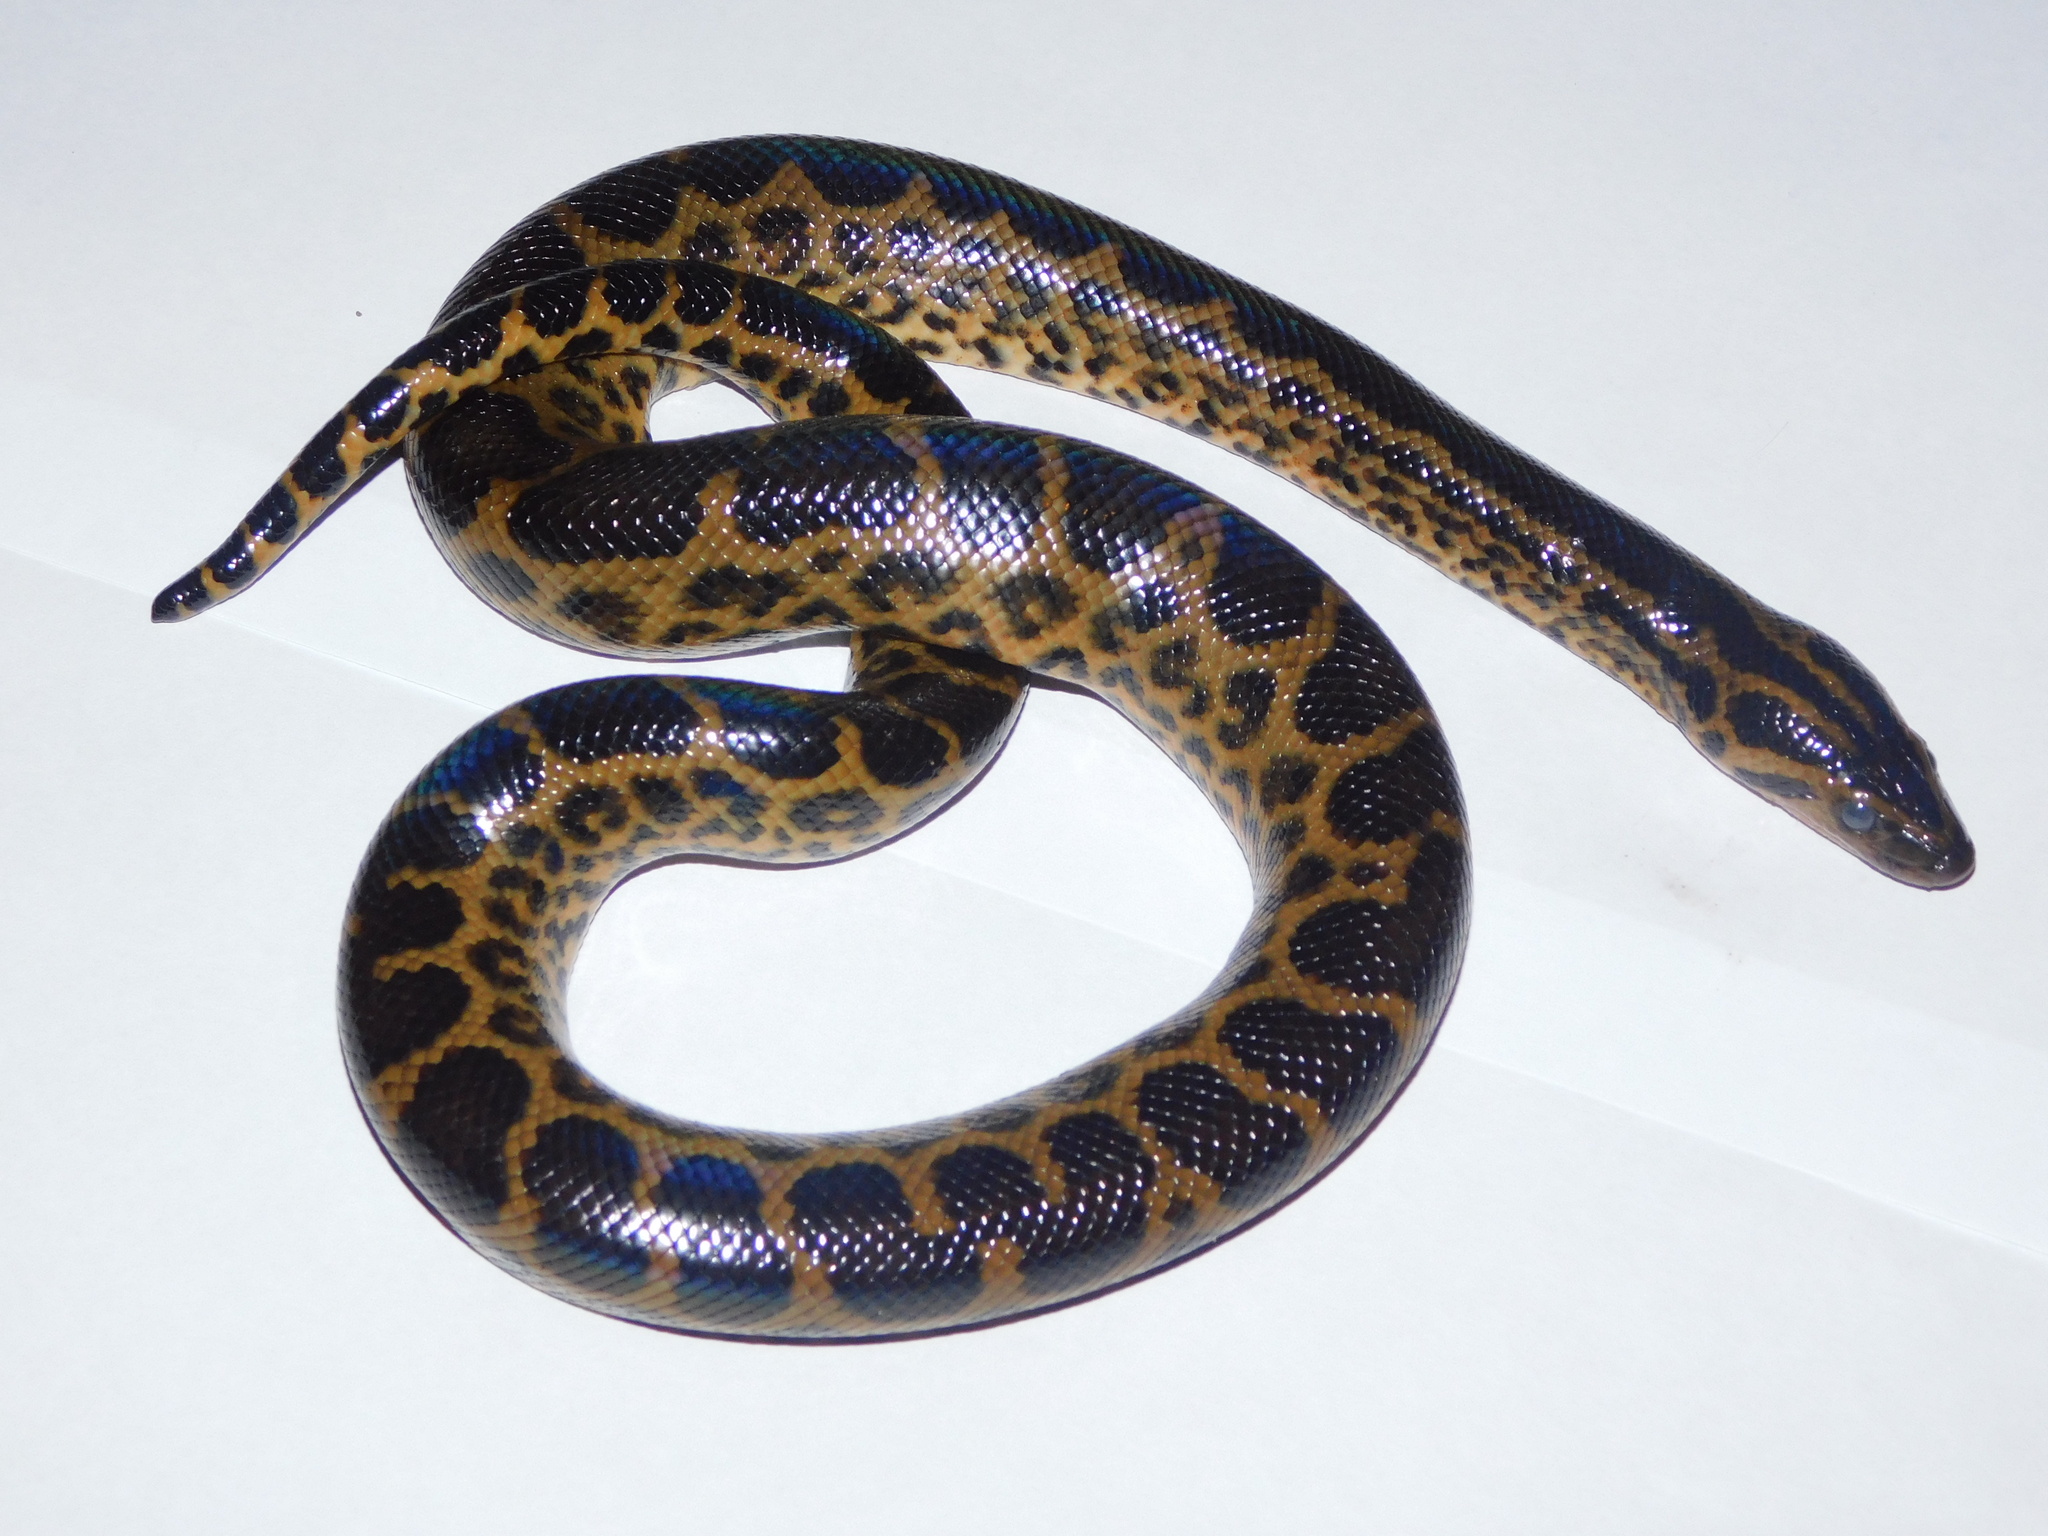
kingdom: Animalia
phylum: Chordata
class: Squamata
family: Boidae
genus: Eunectes
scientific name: Eunectes notaeus
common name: Yellow anaconda
